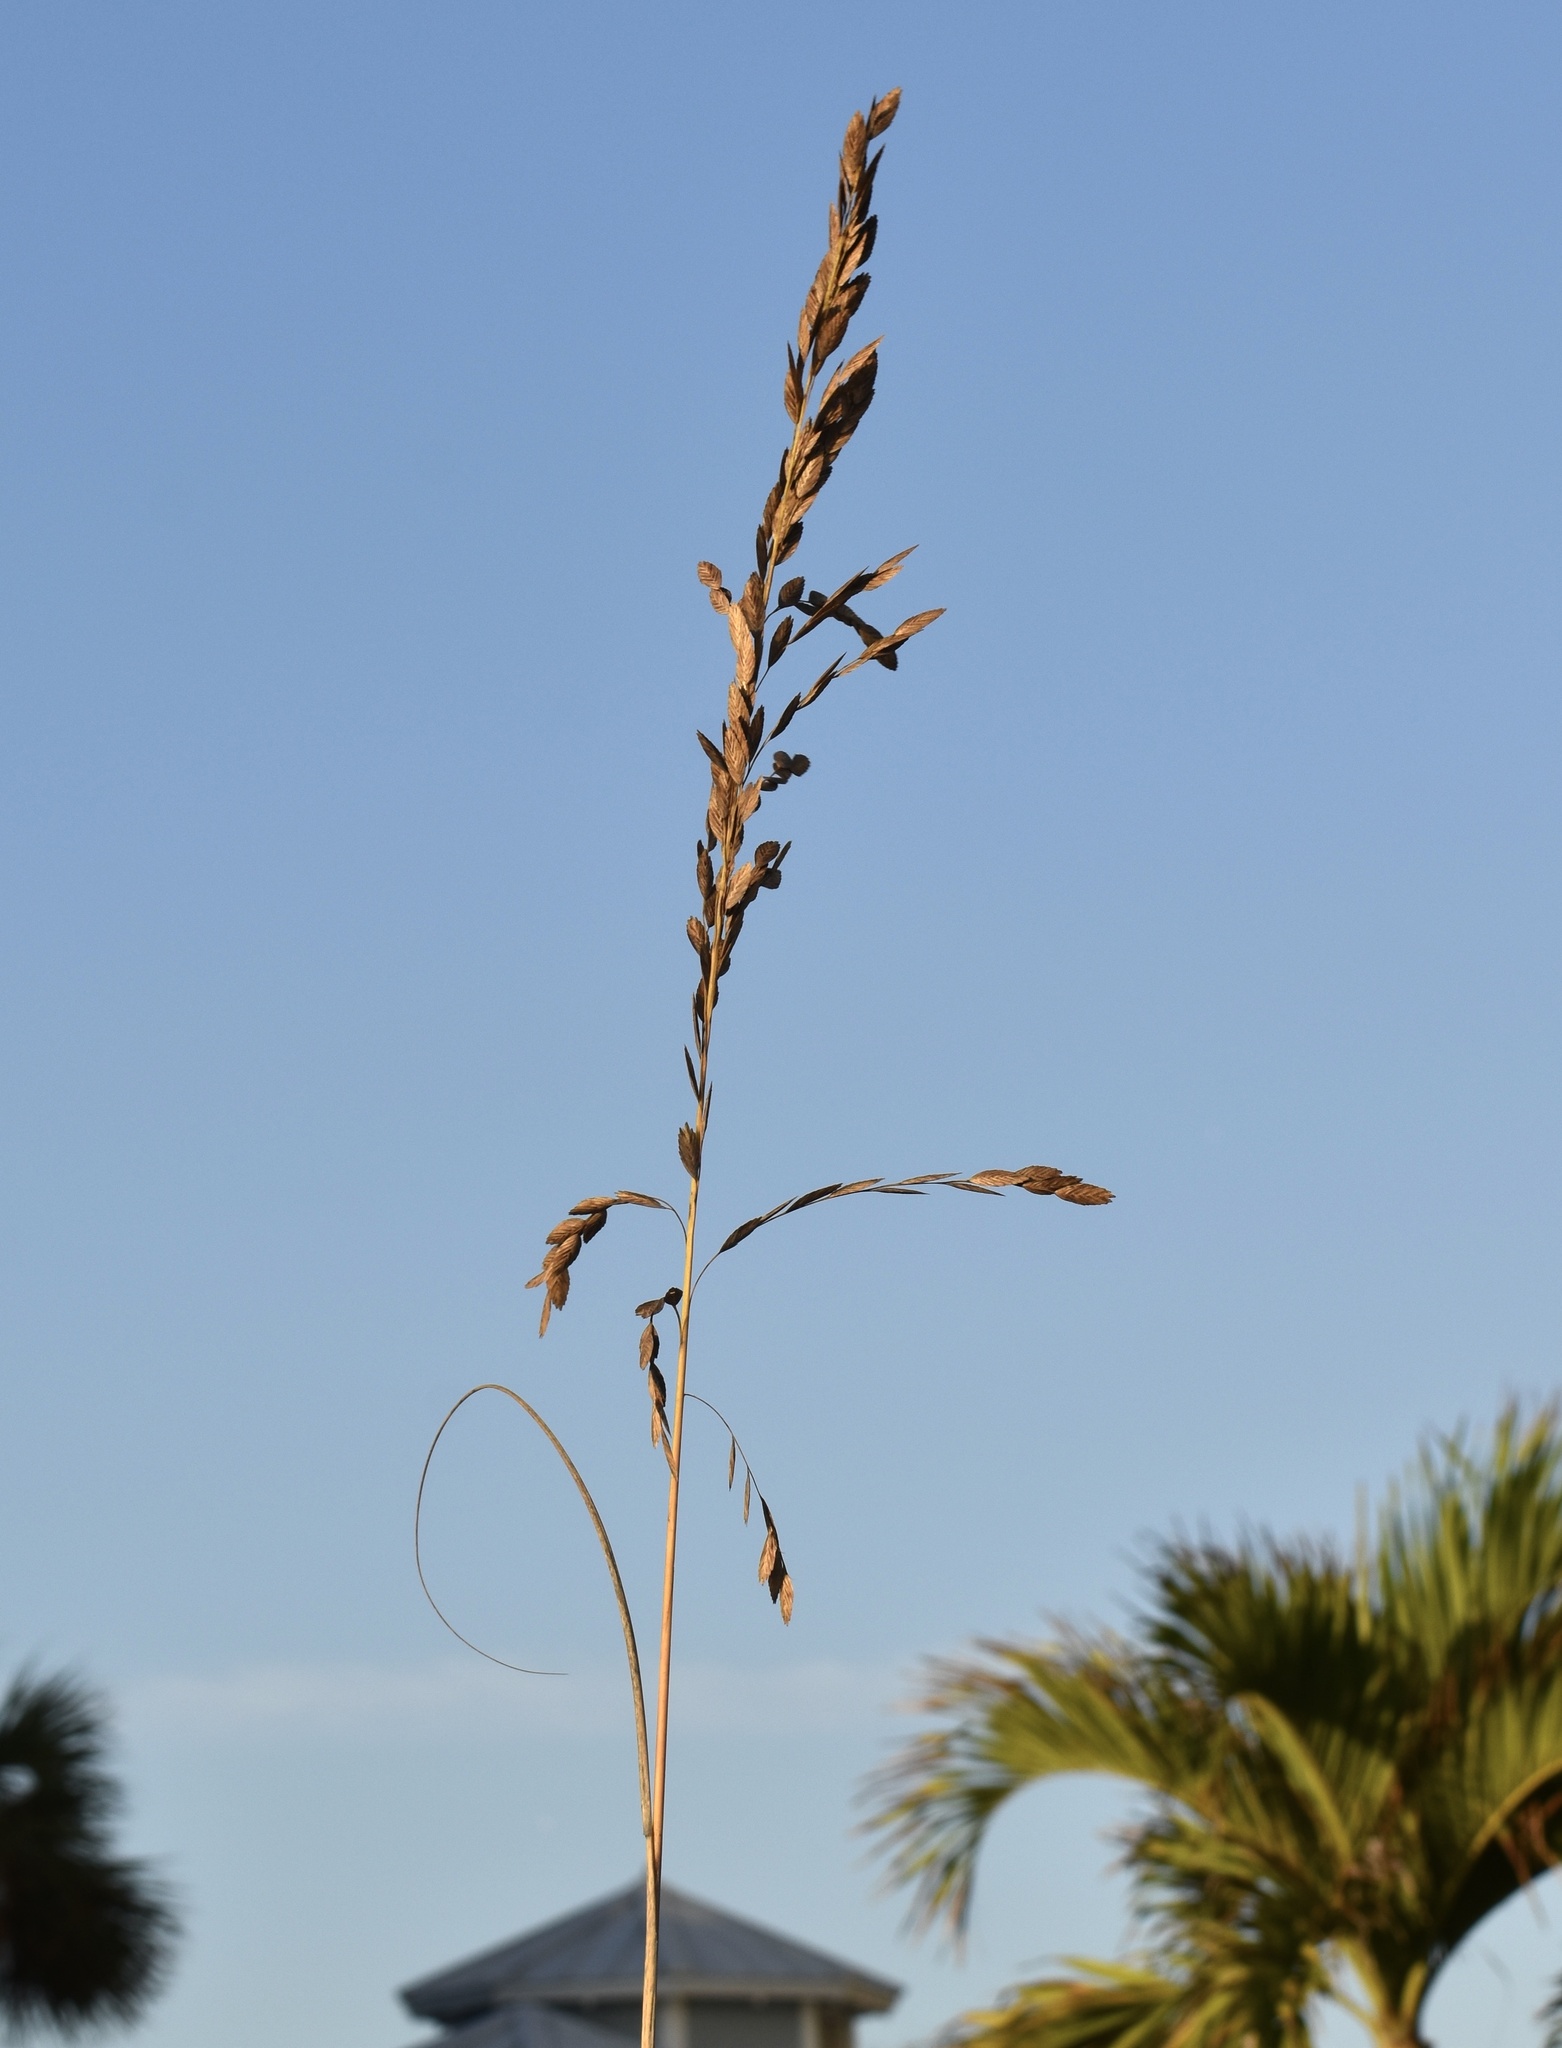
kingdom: Plantae
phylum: Tracheophyta
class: Liliopsida
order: Poales
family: Poaceae
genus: Uniola
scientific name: Uniola paniculata
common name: Seaside-oats
